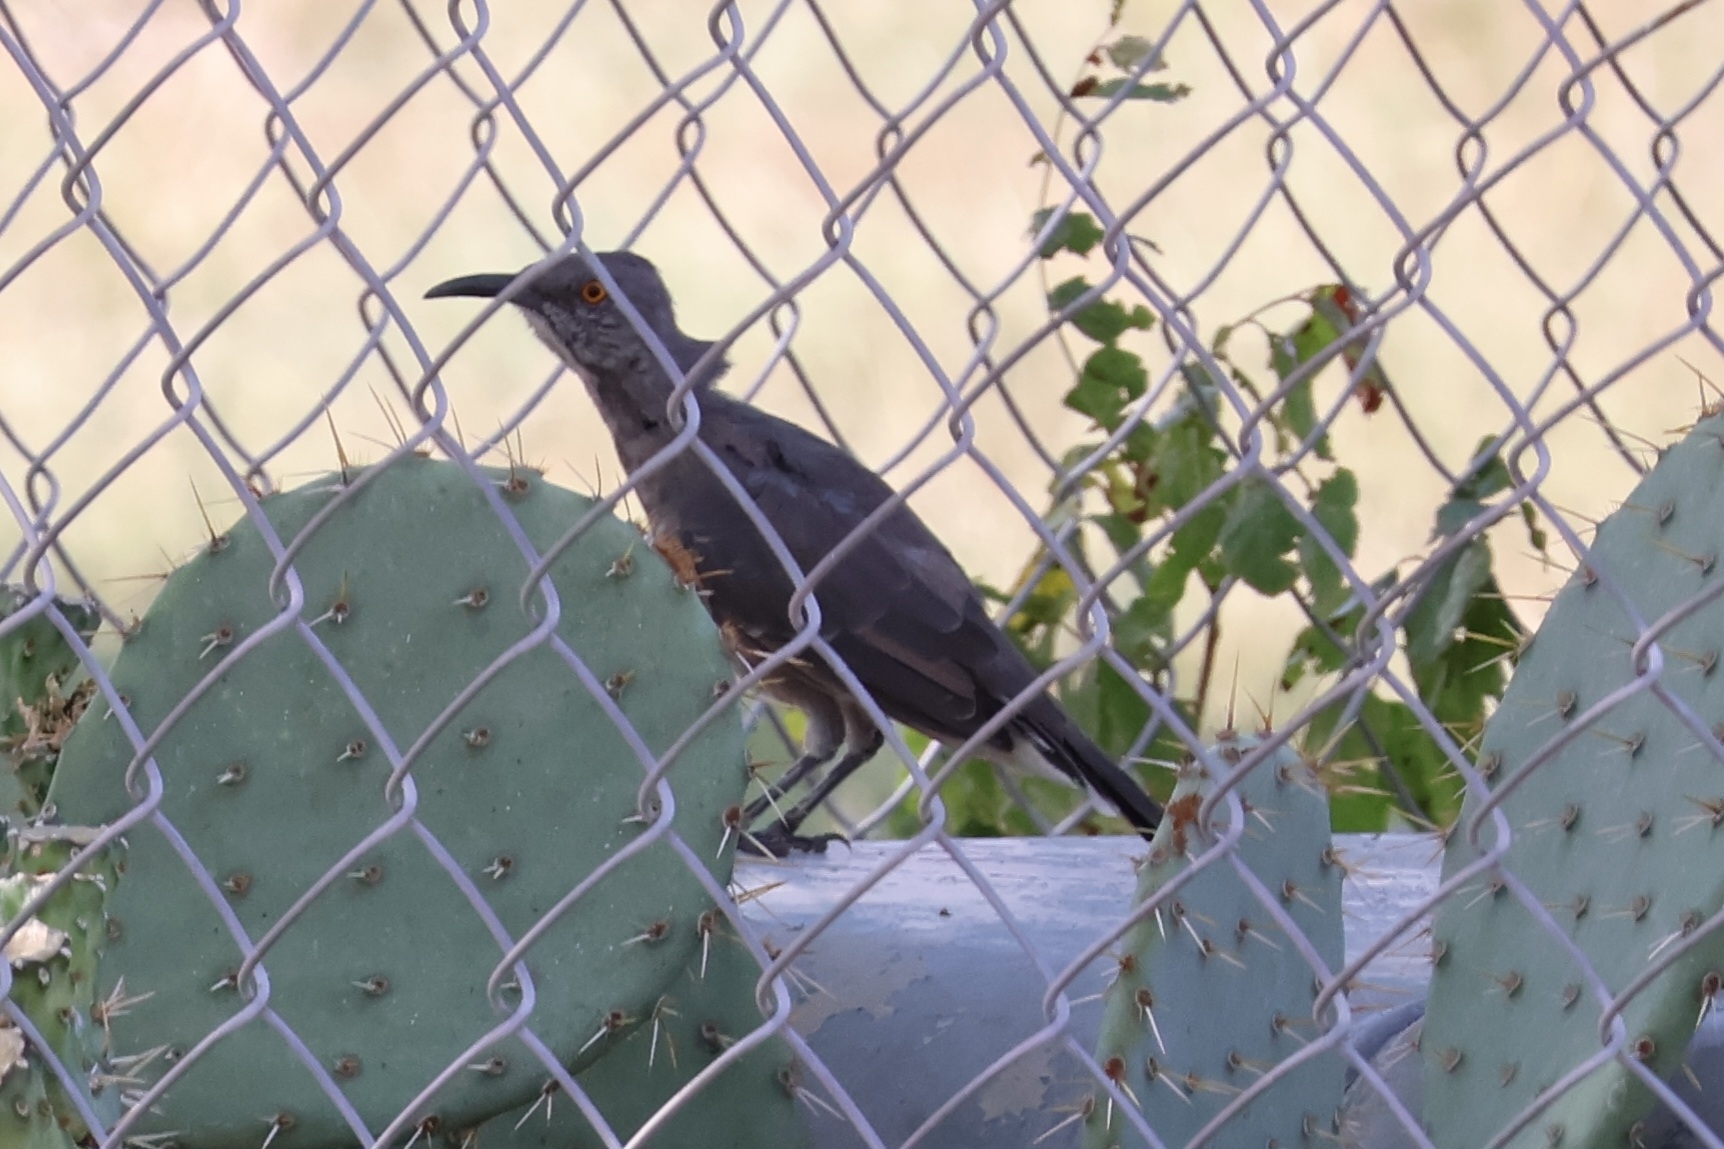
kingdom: Animalia
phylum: Chordata
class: Aves
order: Passeriformes
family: Mimidae
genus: Toxostoma
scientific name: Toxostoma curvirostre
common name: Curve-billed thrasher
